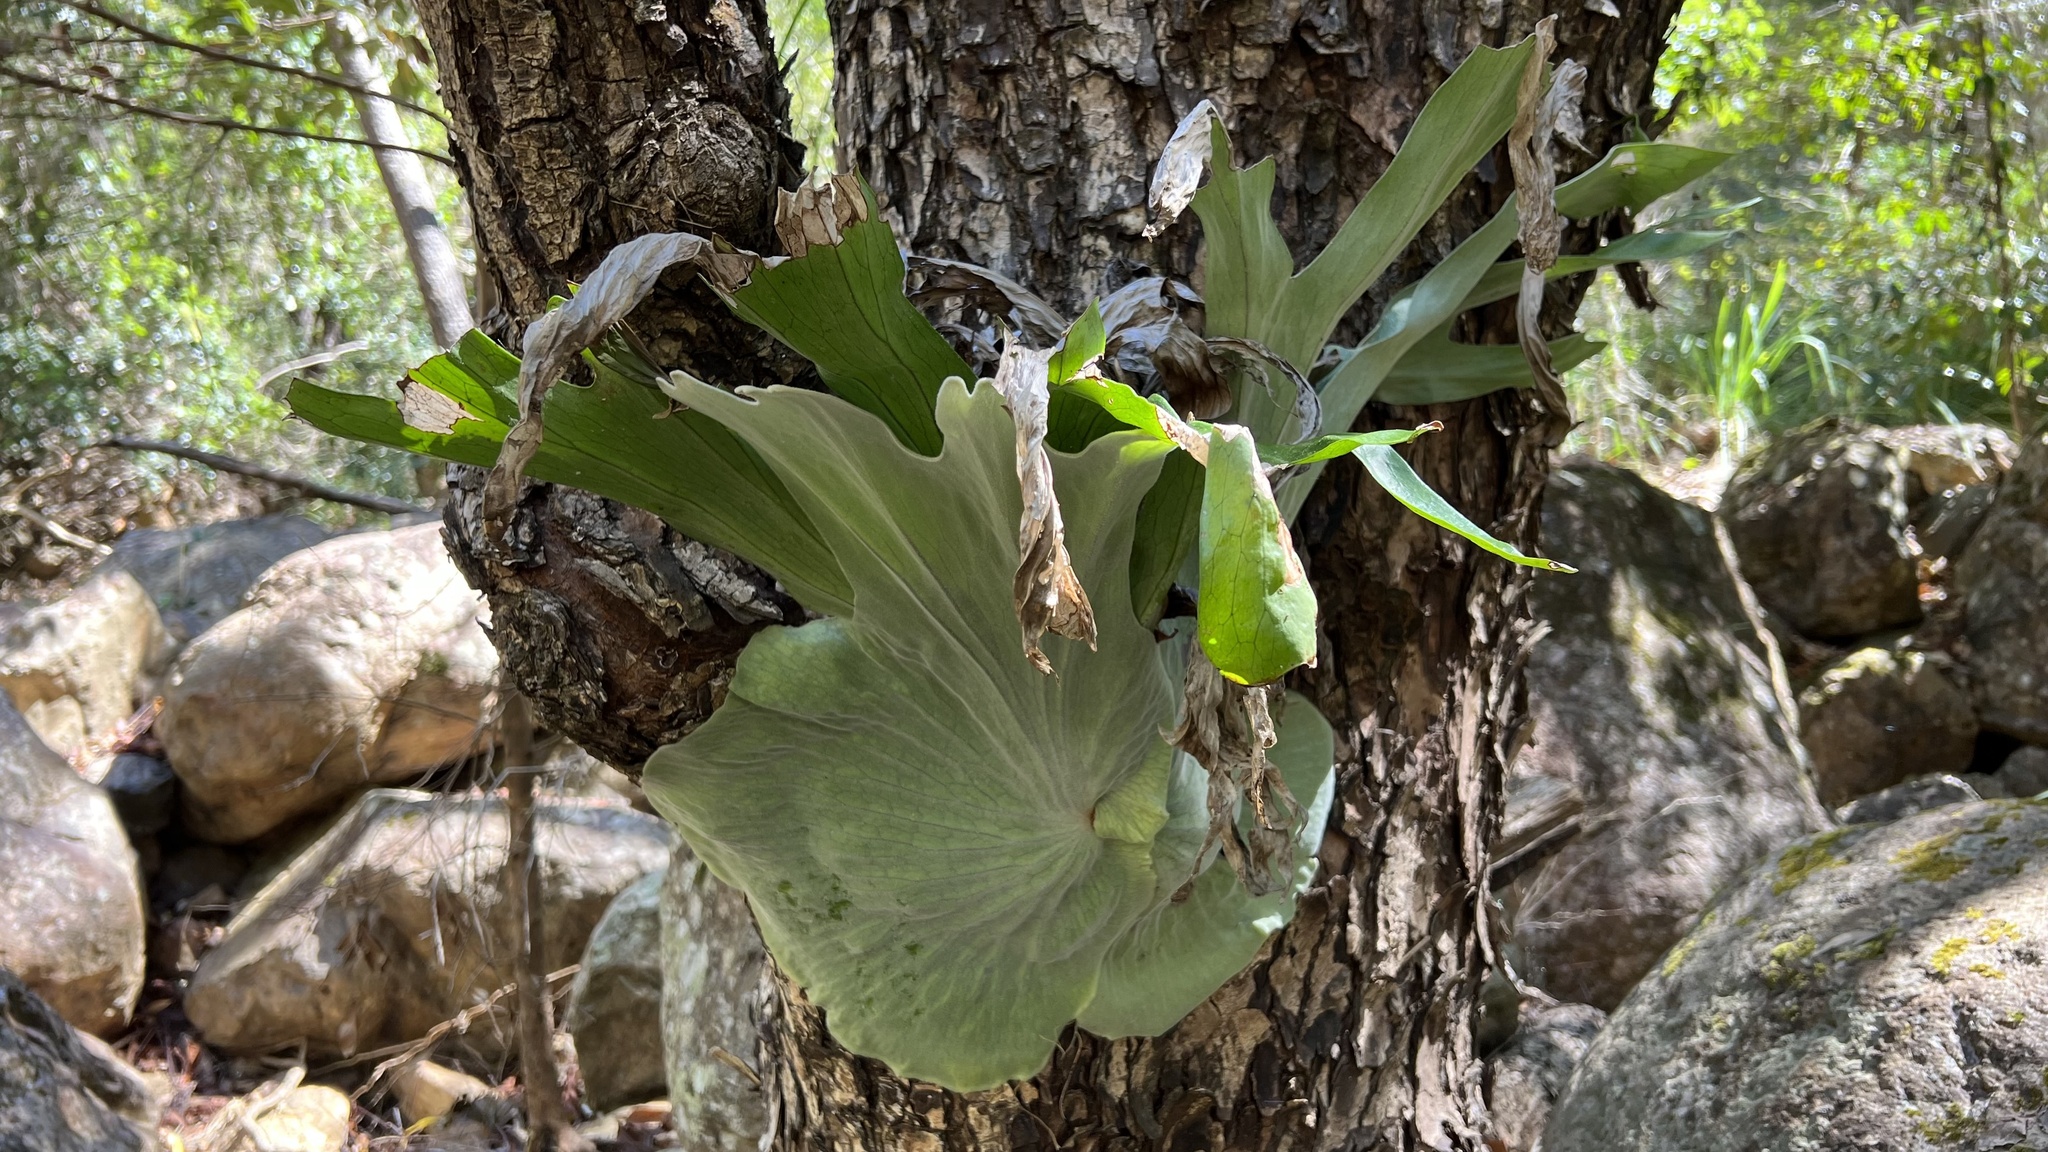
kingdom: Plantae
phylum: Tracheophyta
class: Polypodiopsida
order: Polypodiales
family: Polypodiaceae
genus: Platycerium
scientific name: Platycerium superbum
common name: Staghorn fern
